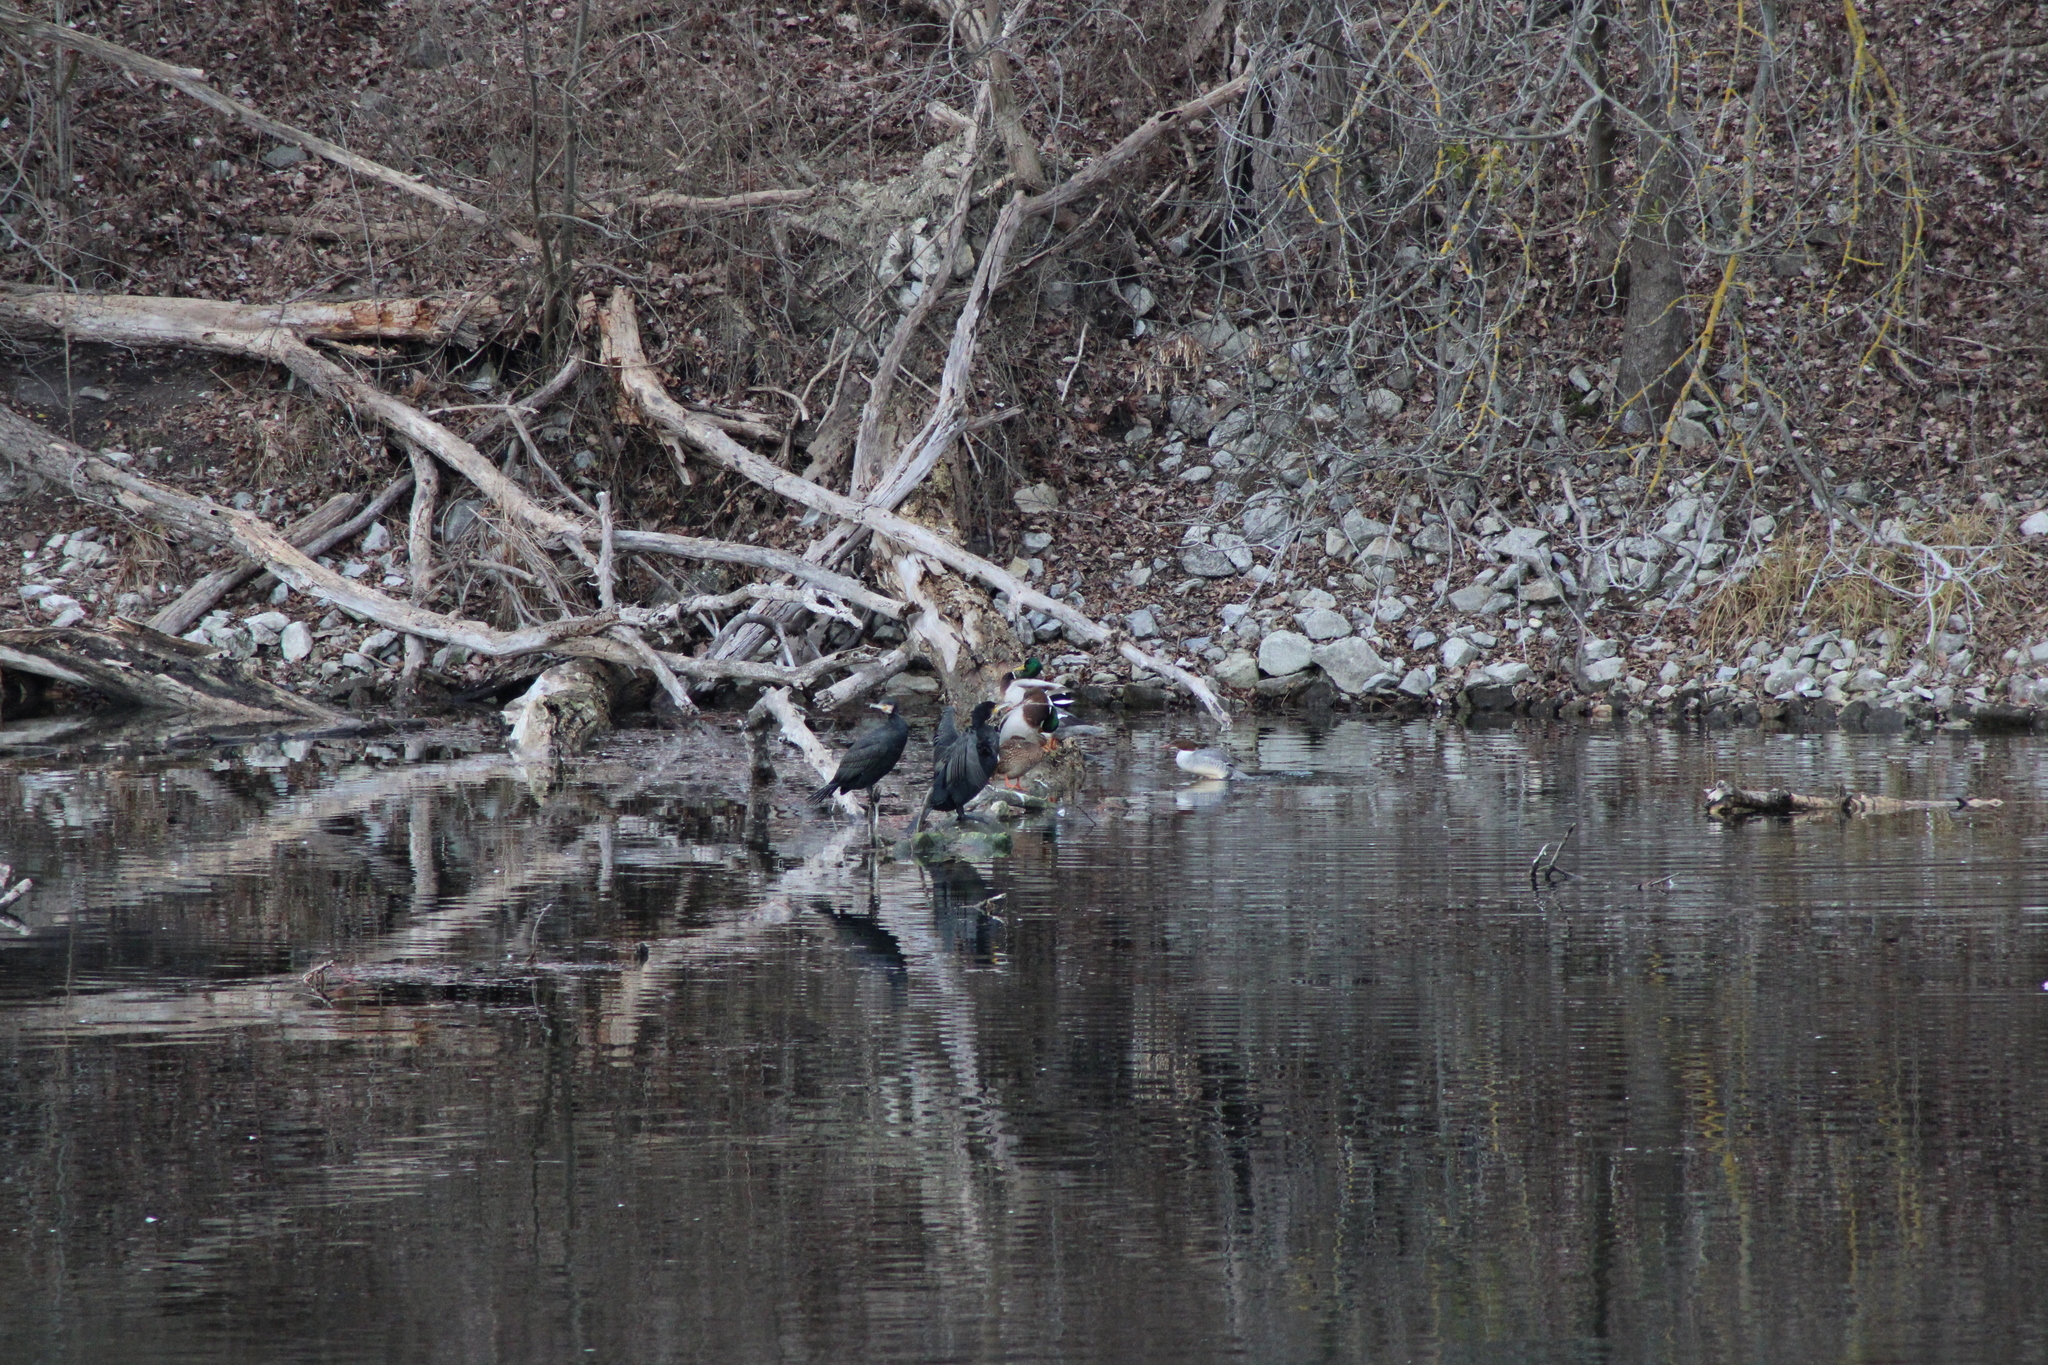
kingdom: Animalia
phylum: Chordata
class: Aves
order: Suliformes
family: Phalacrocoracidae
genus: Phalacrocorax
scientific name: Phalacrocorax carbo
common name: Great cormorant
